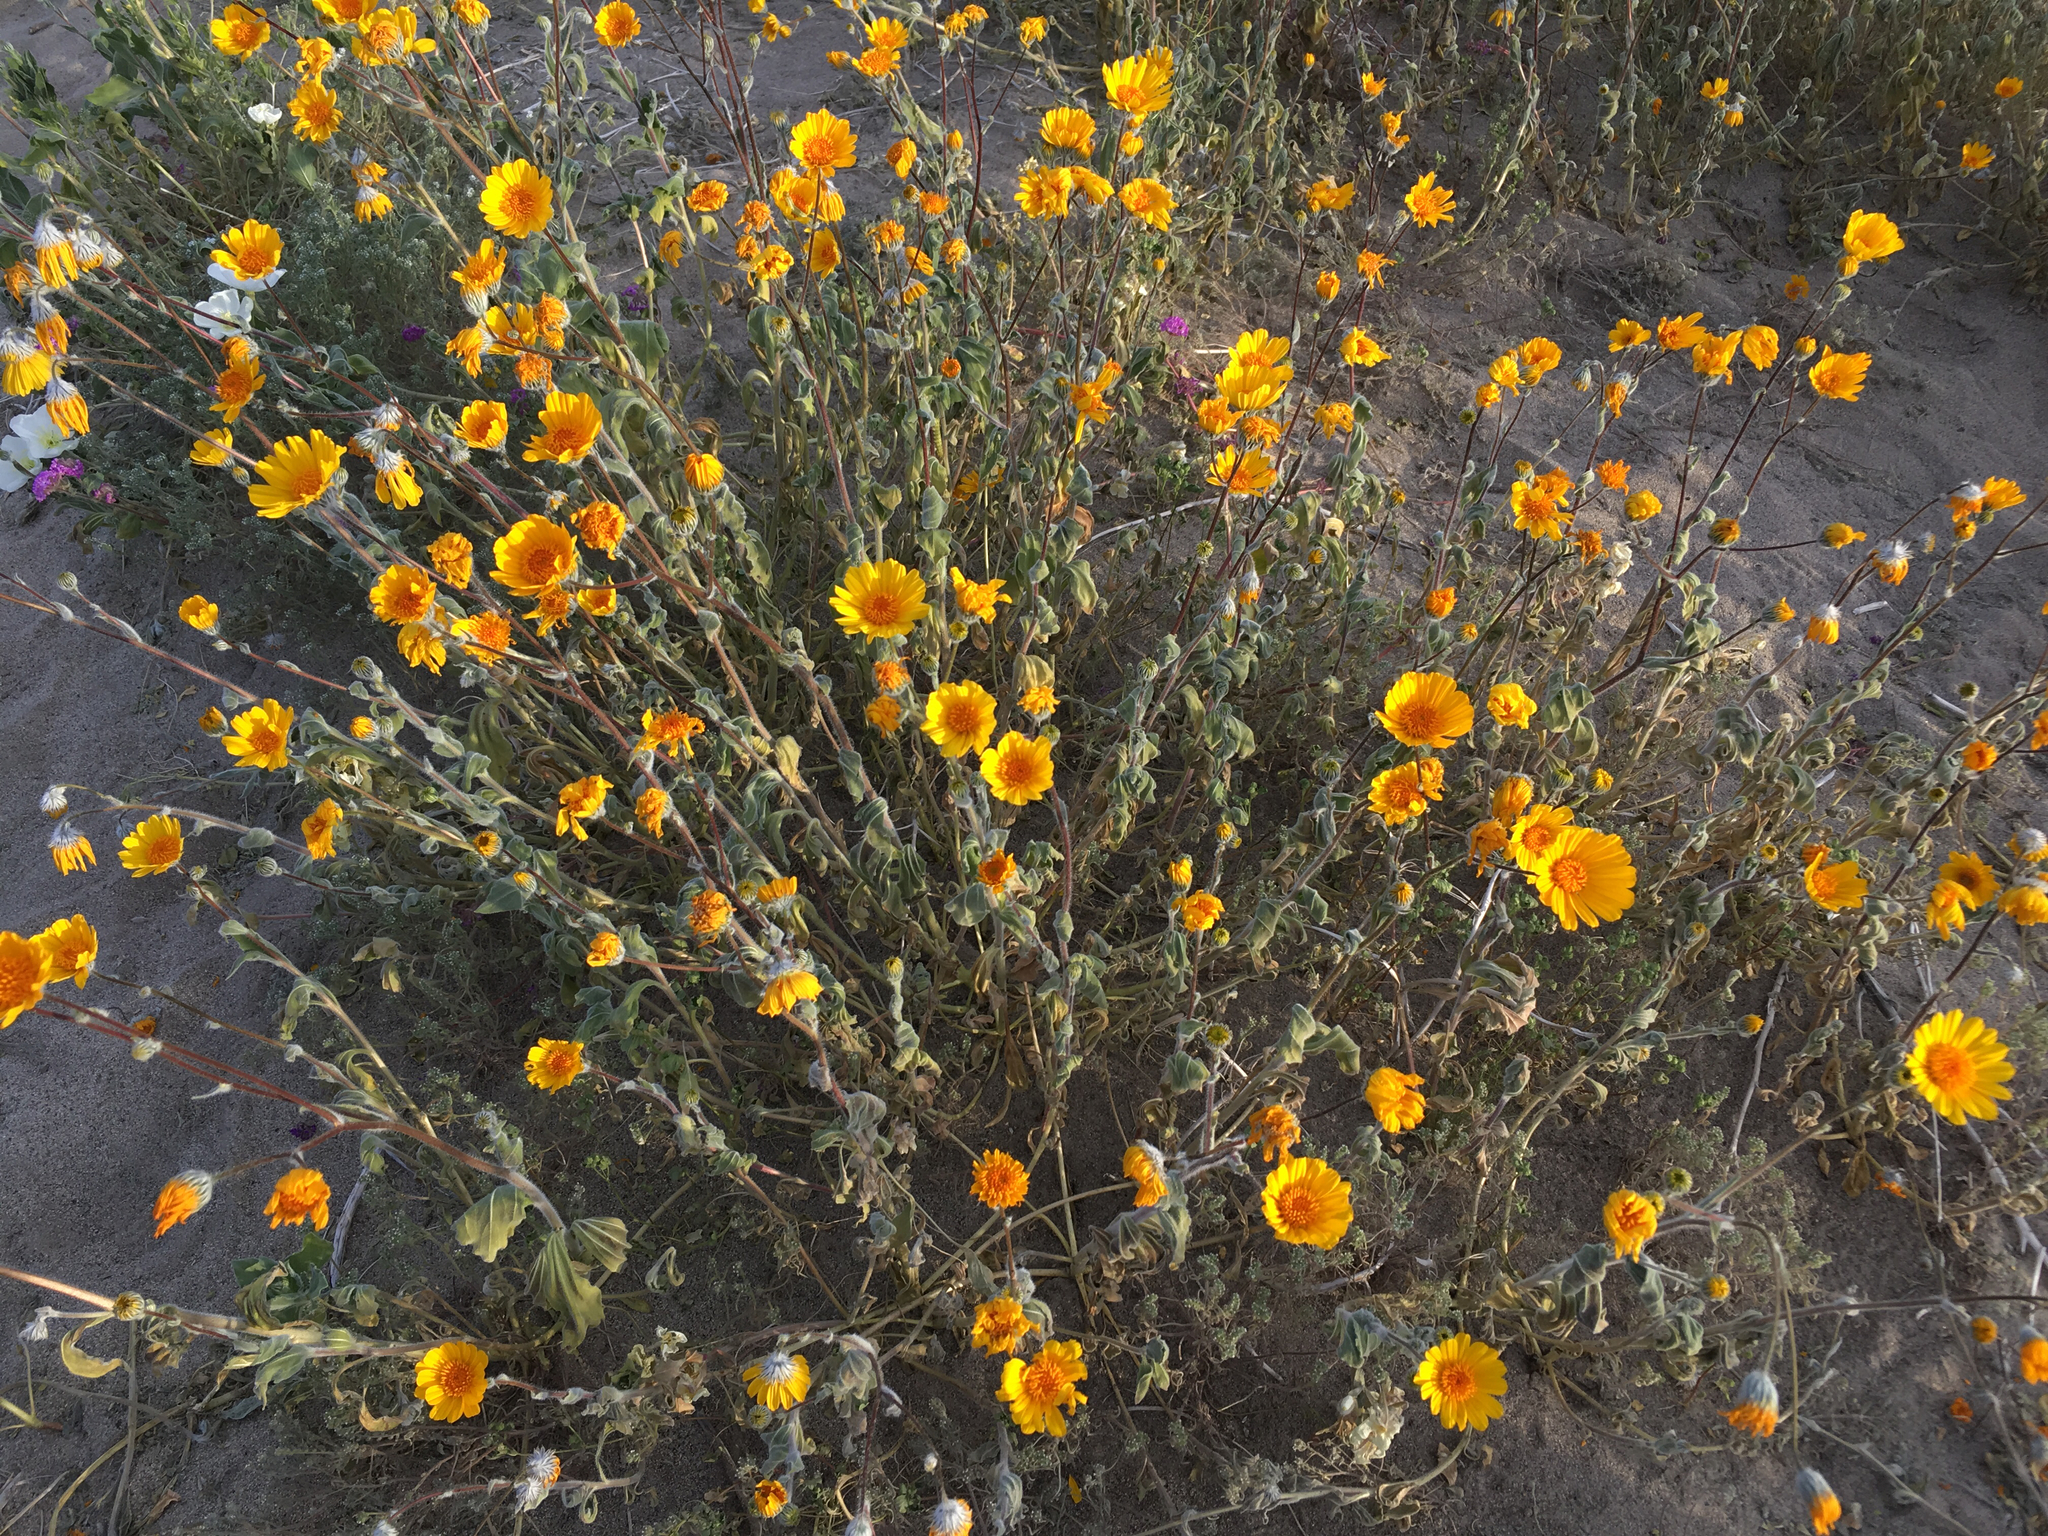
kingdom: Plantae
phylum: Tracheophyta
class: Magnoliopsida
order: Asterales
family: Asteraceae
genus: Geraea
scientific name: Geraea canescens
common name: Desert-gold
